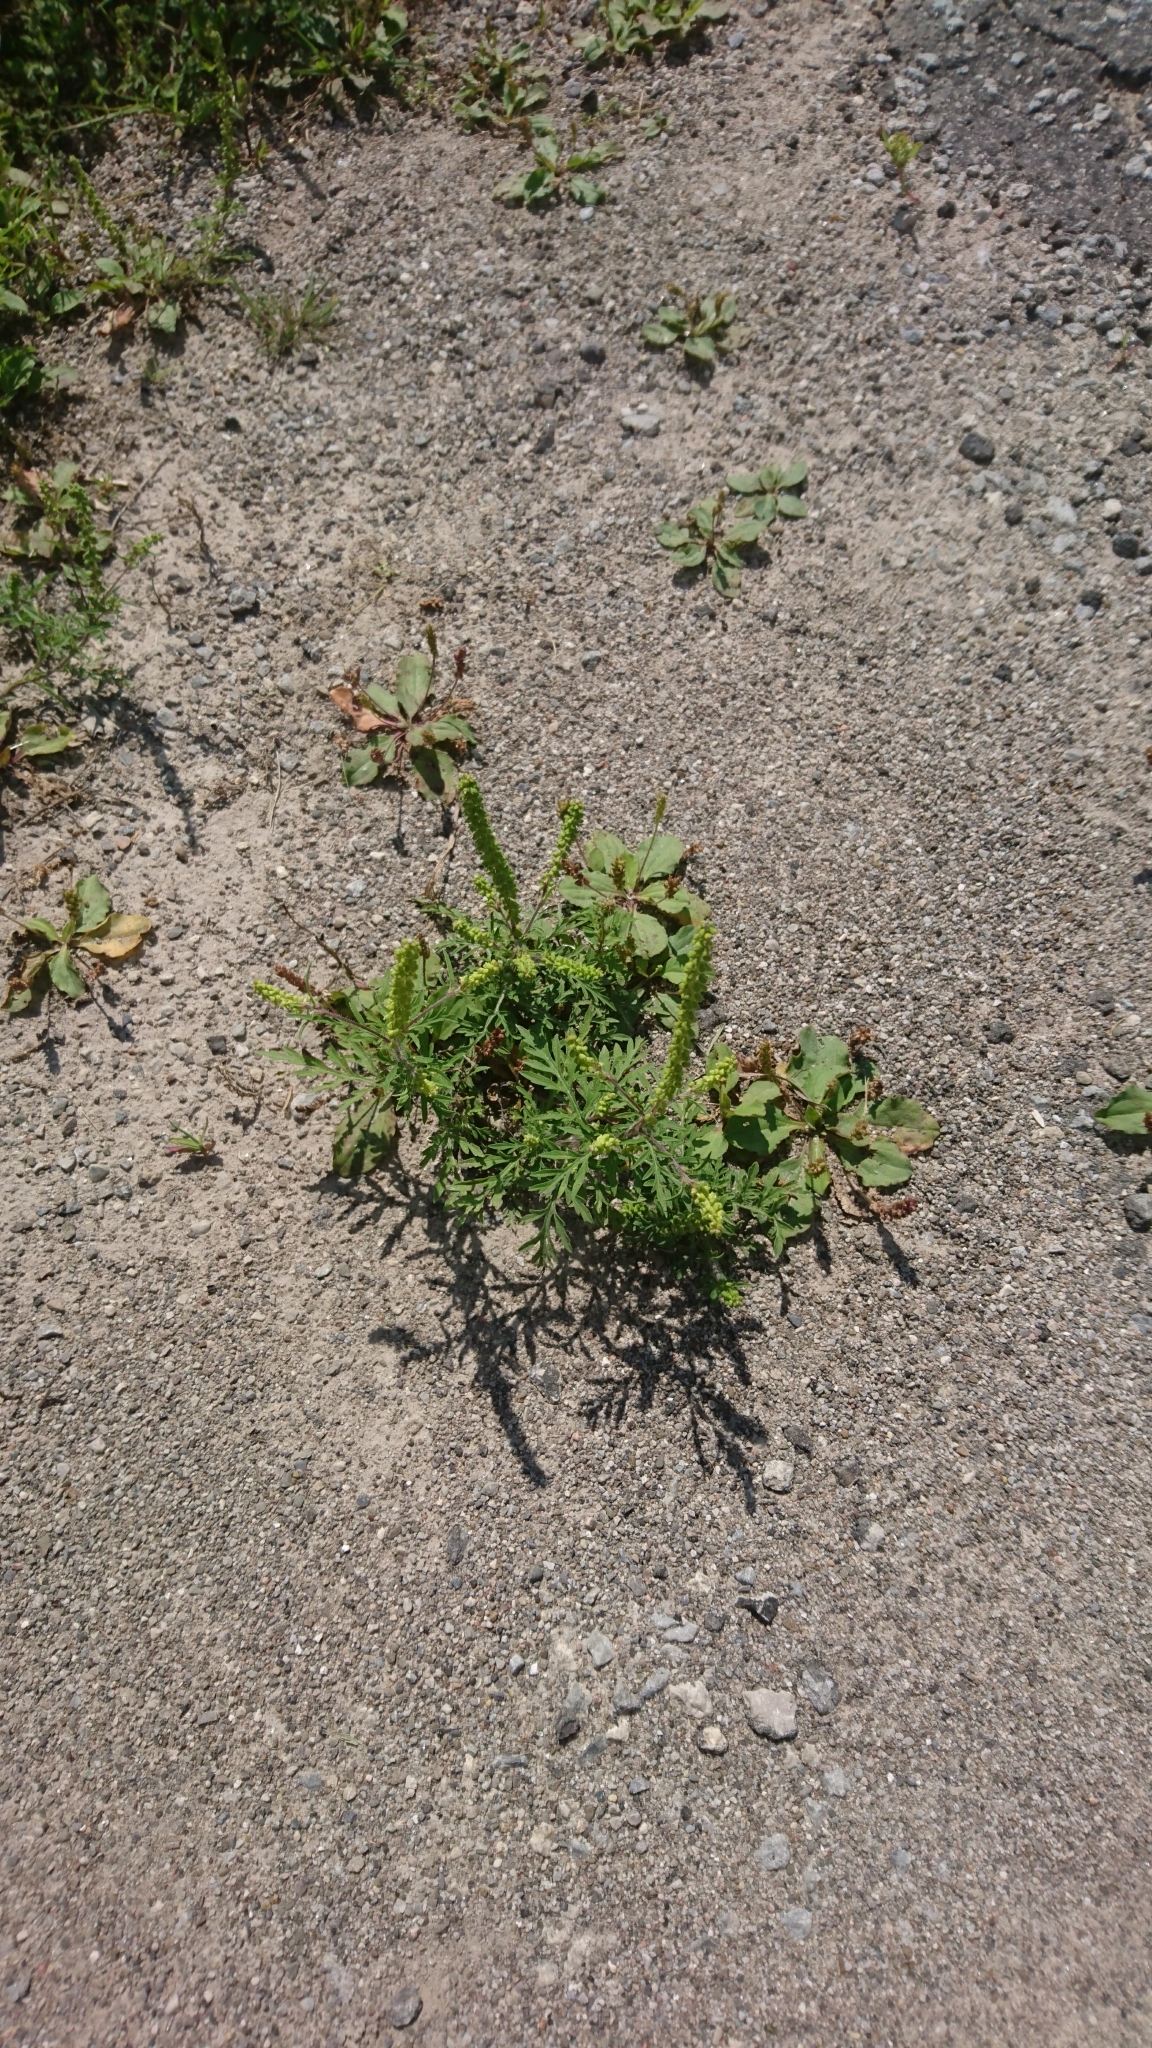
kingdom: Plantae
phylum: Tracheophyta
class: Magnoliopsida
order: Asterales
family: Asteraceae
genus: Ambrosia
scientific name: Ambrosia artemisiifolia
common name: Annual ragweed
